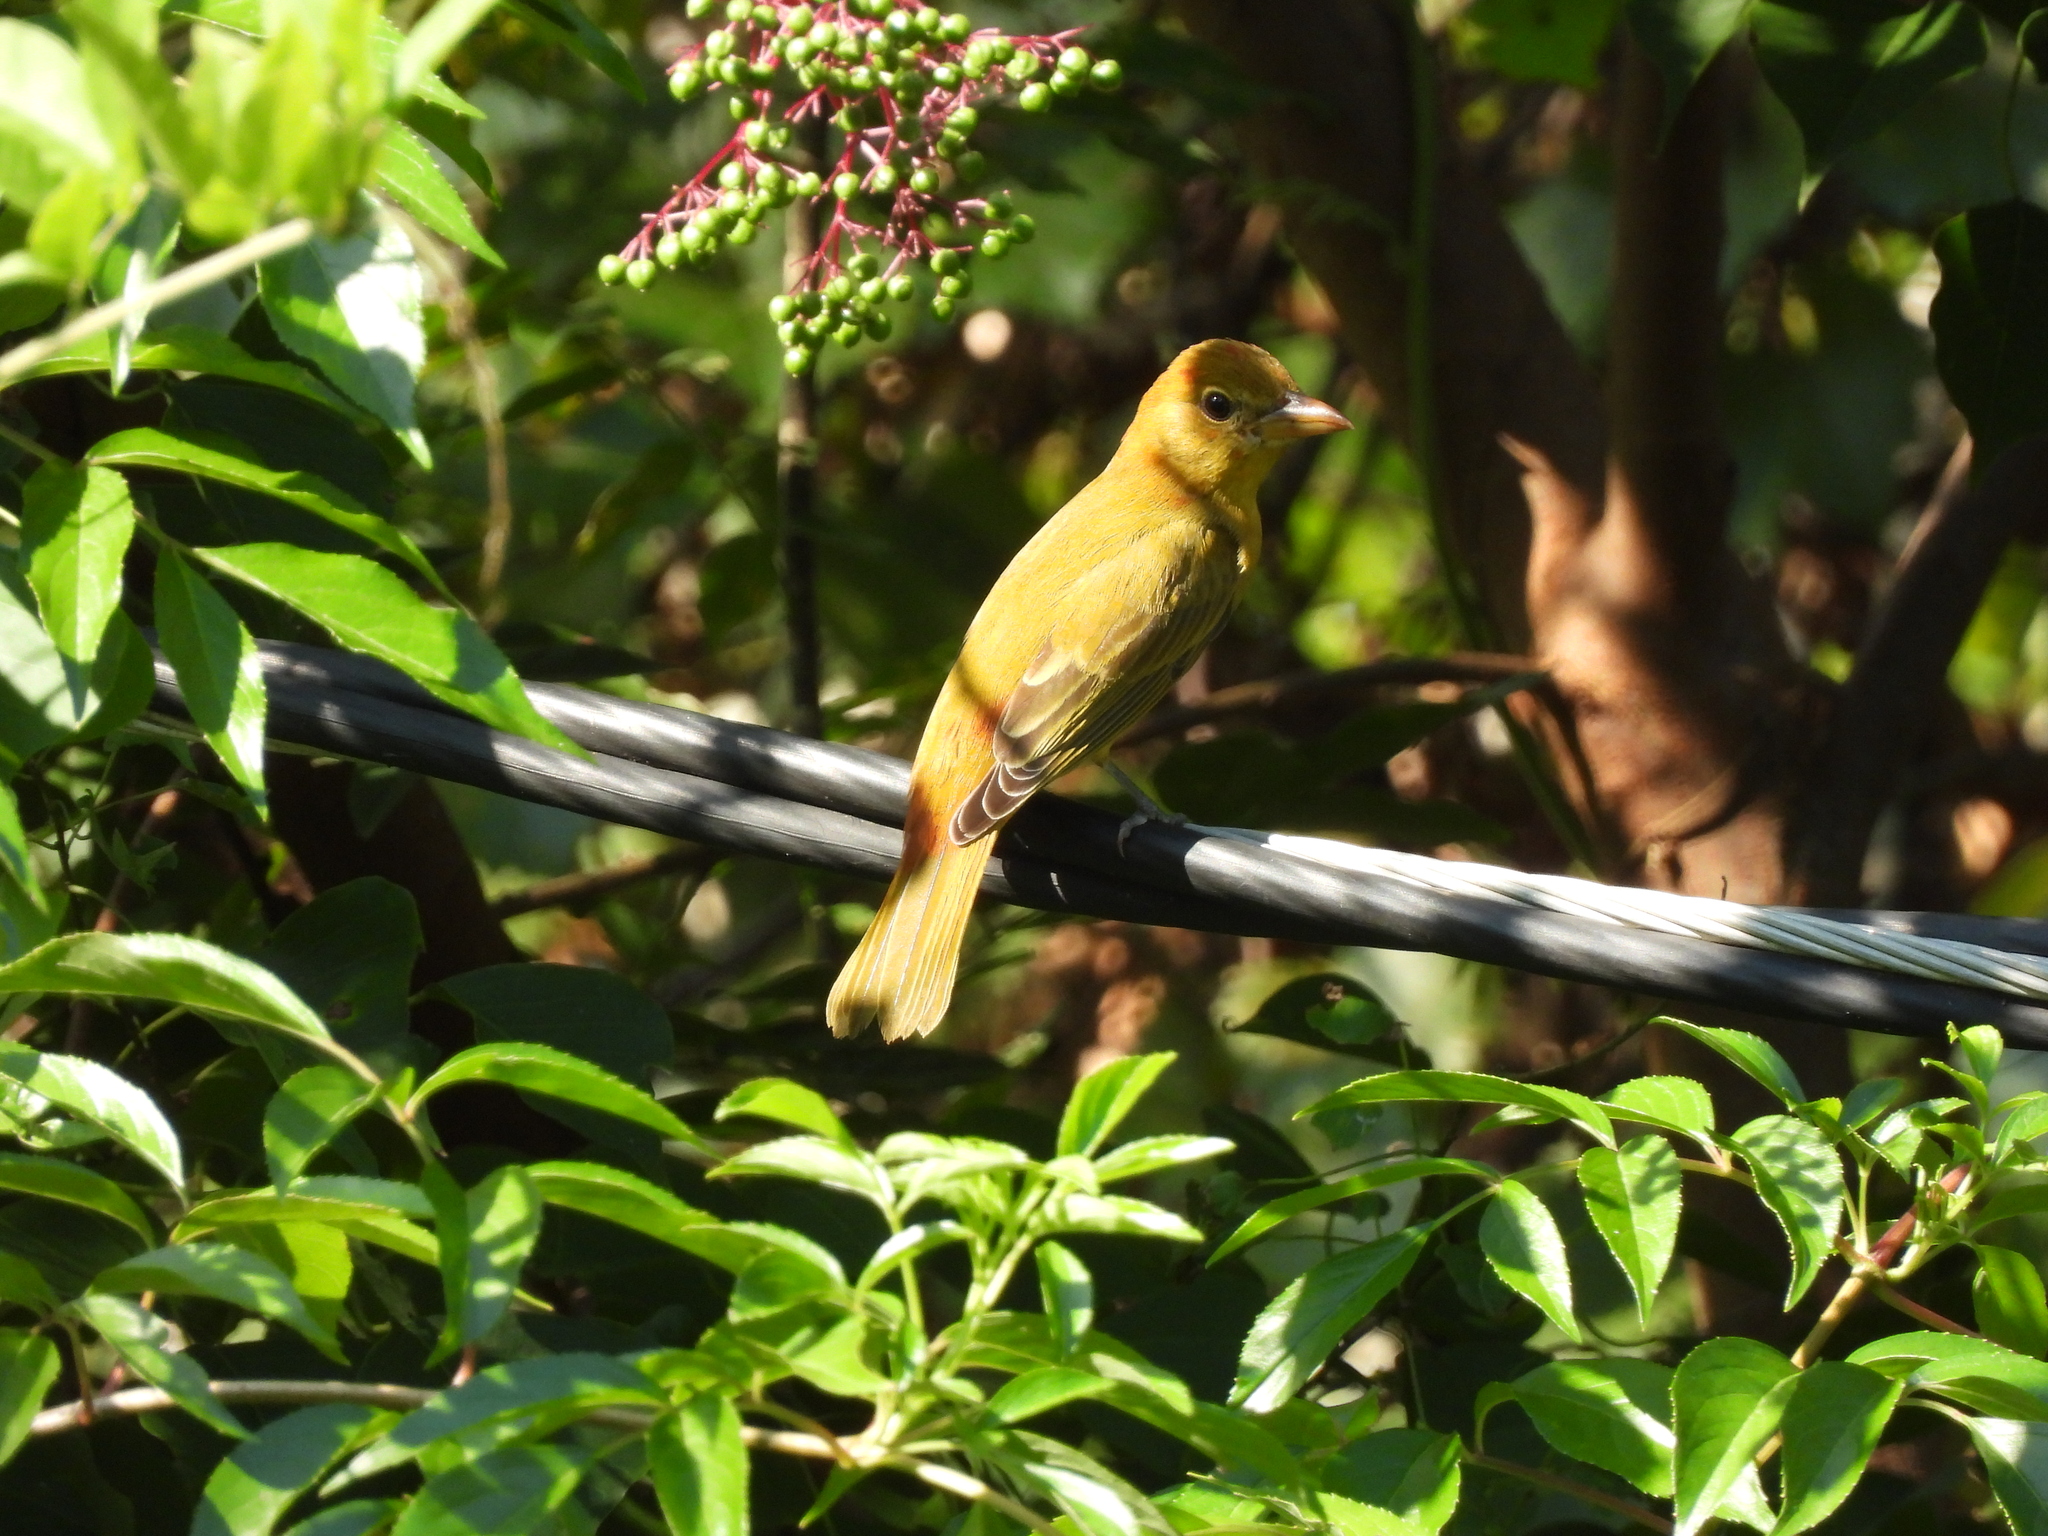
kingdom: Animalia
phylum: Chordata
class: Aves
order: Passeriformes
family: Cardinalidae
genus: Piranga
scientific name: Piranga rubra
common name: Summer tanager
